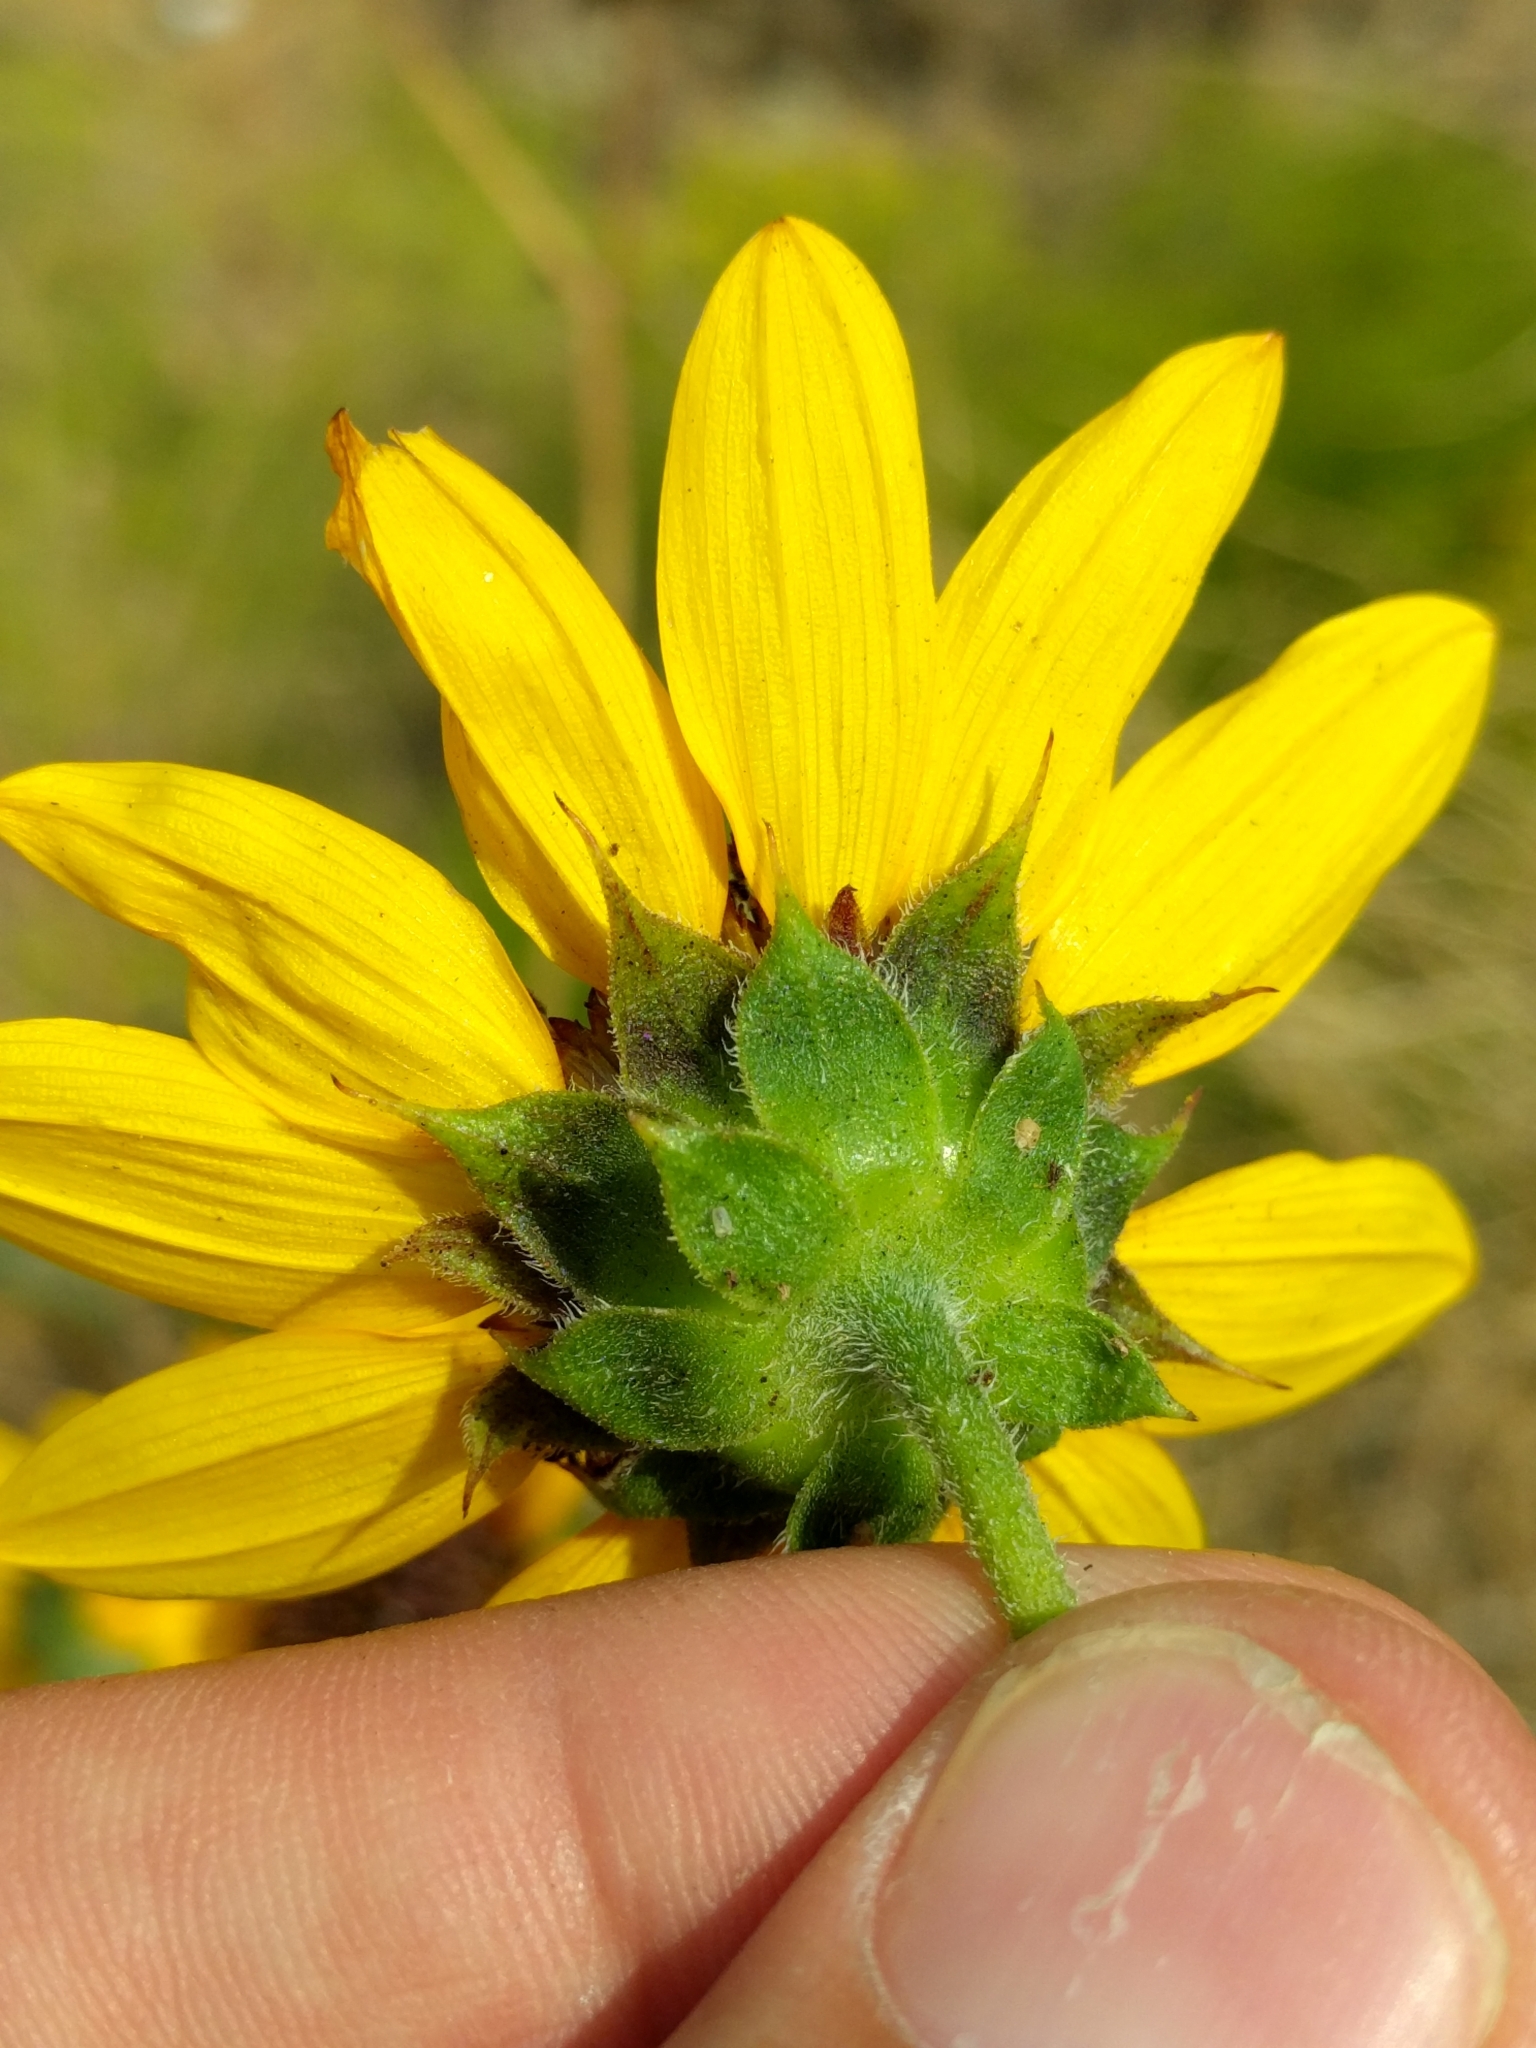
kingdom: Plantae
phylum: Tracheophyta
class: Magnoliopsida
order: Asterales
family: Asteraceae
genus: Helianthus
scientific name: Helianthus annuus
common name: Sunflower
